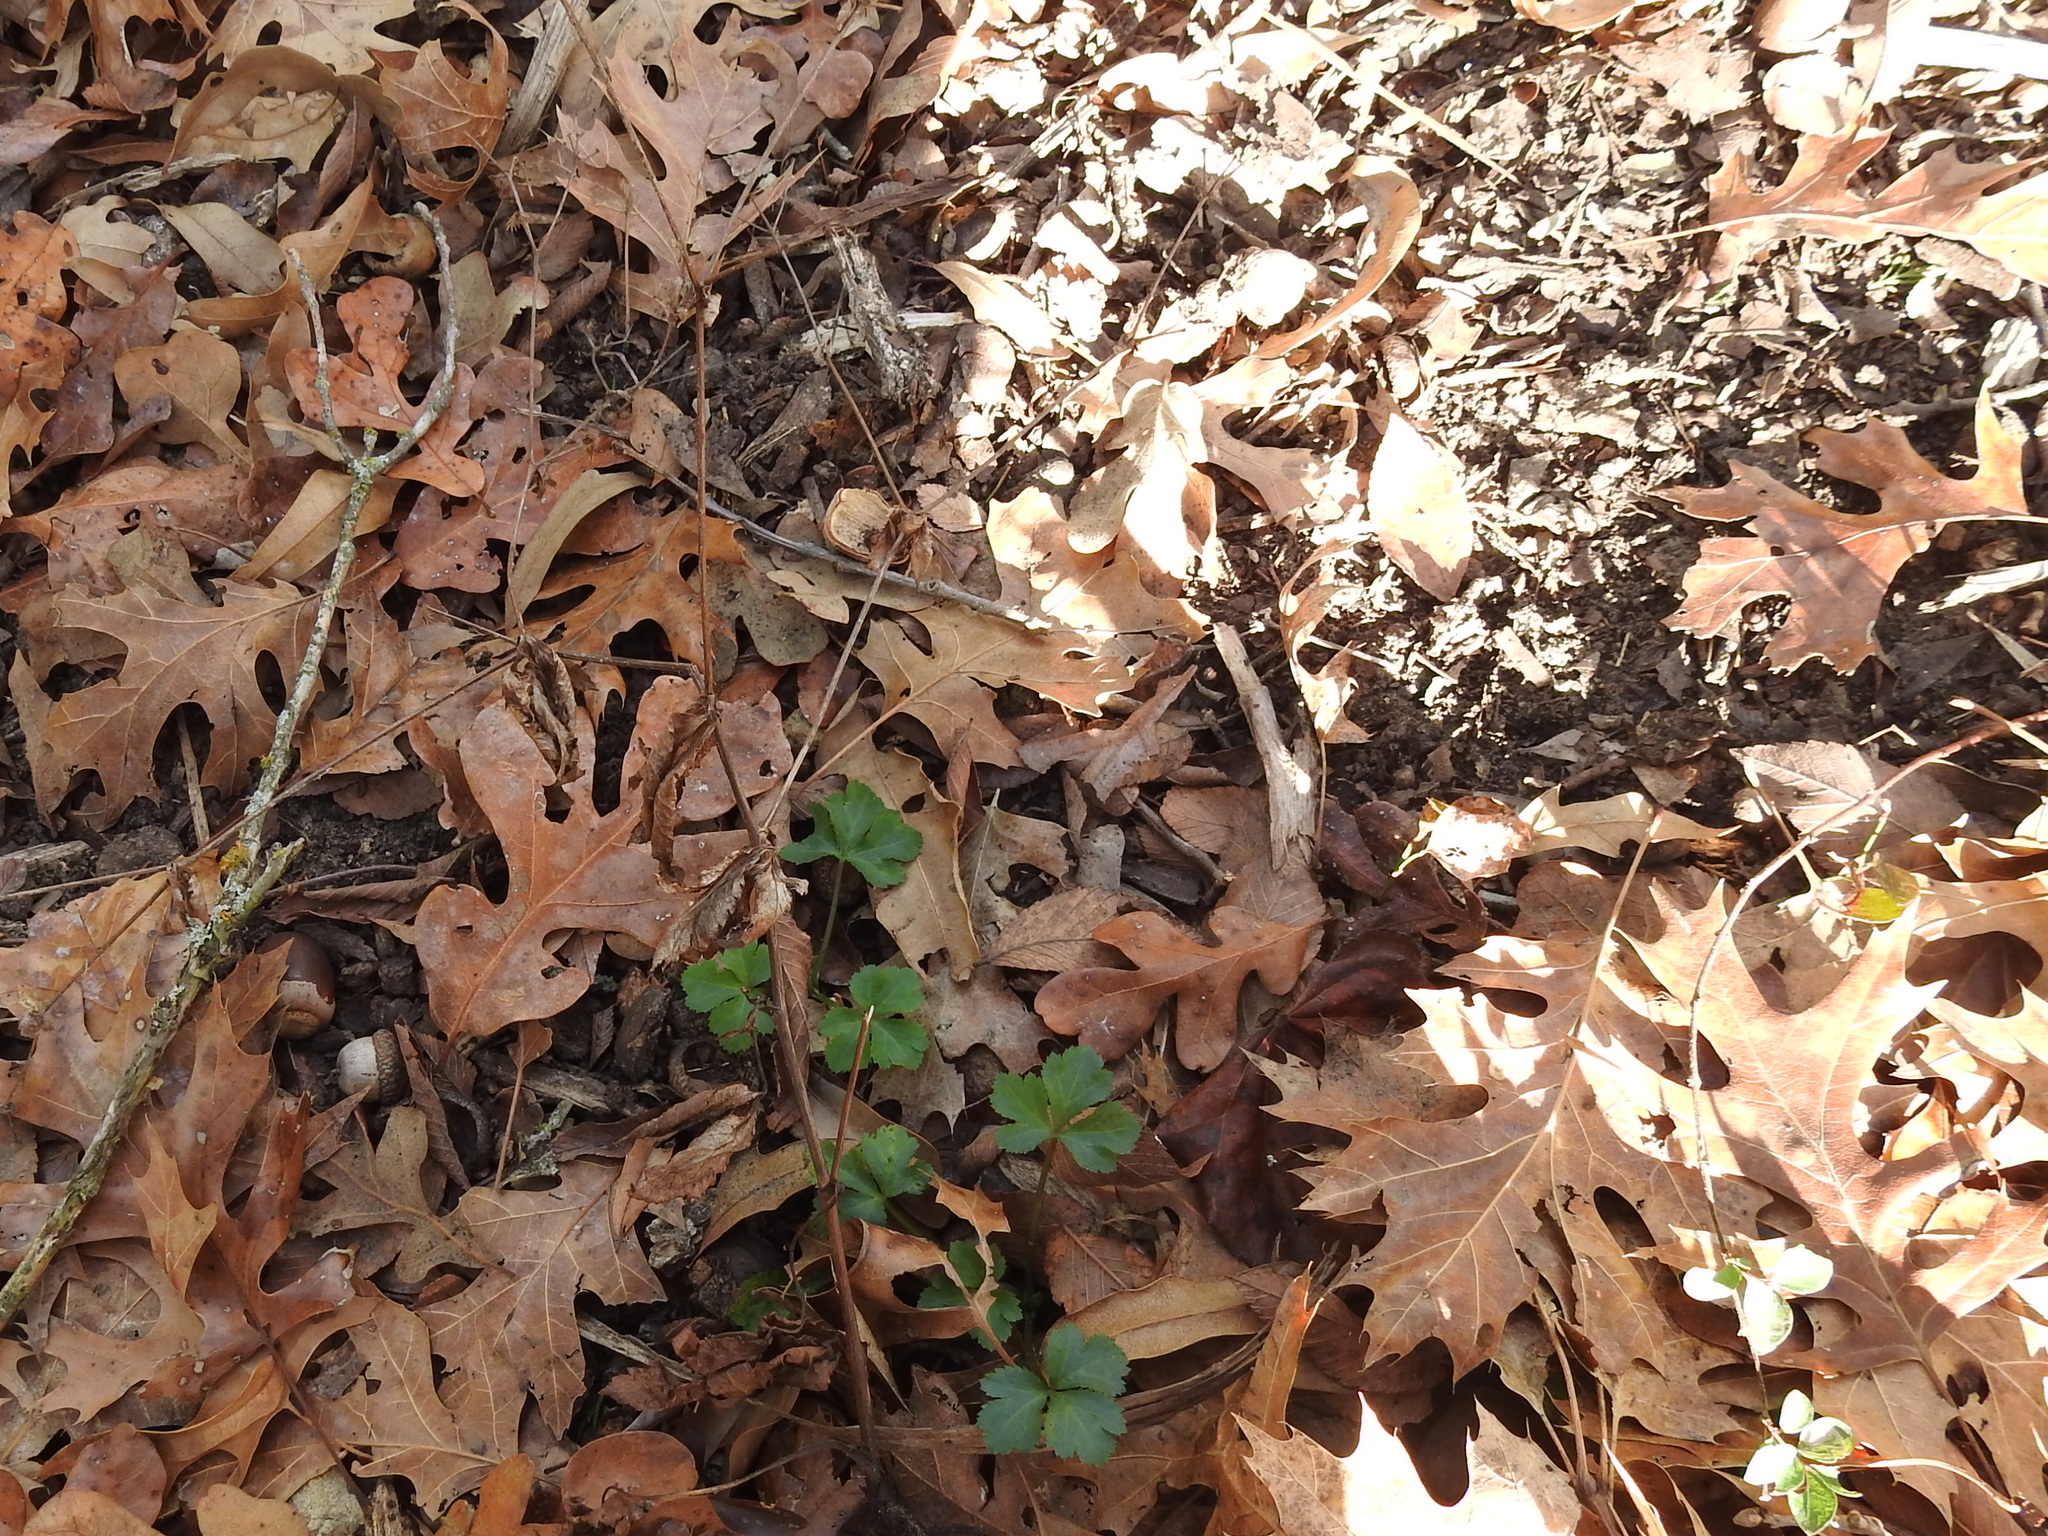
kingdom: Plantae
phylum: Tracheophyta
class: Magnoliopsida
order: Apiales
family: Apiaceae
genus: Sanicula
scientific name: Sanicula canadensis
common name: Canada sanicle
